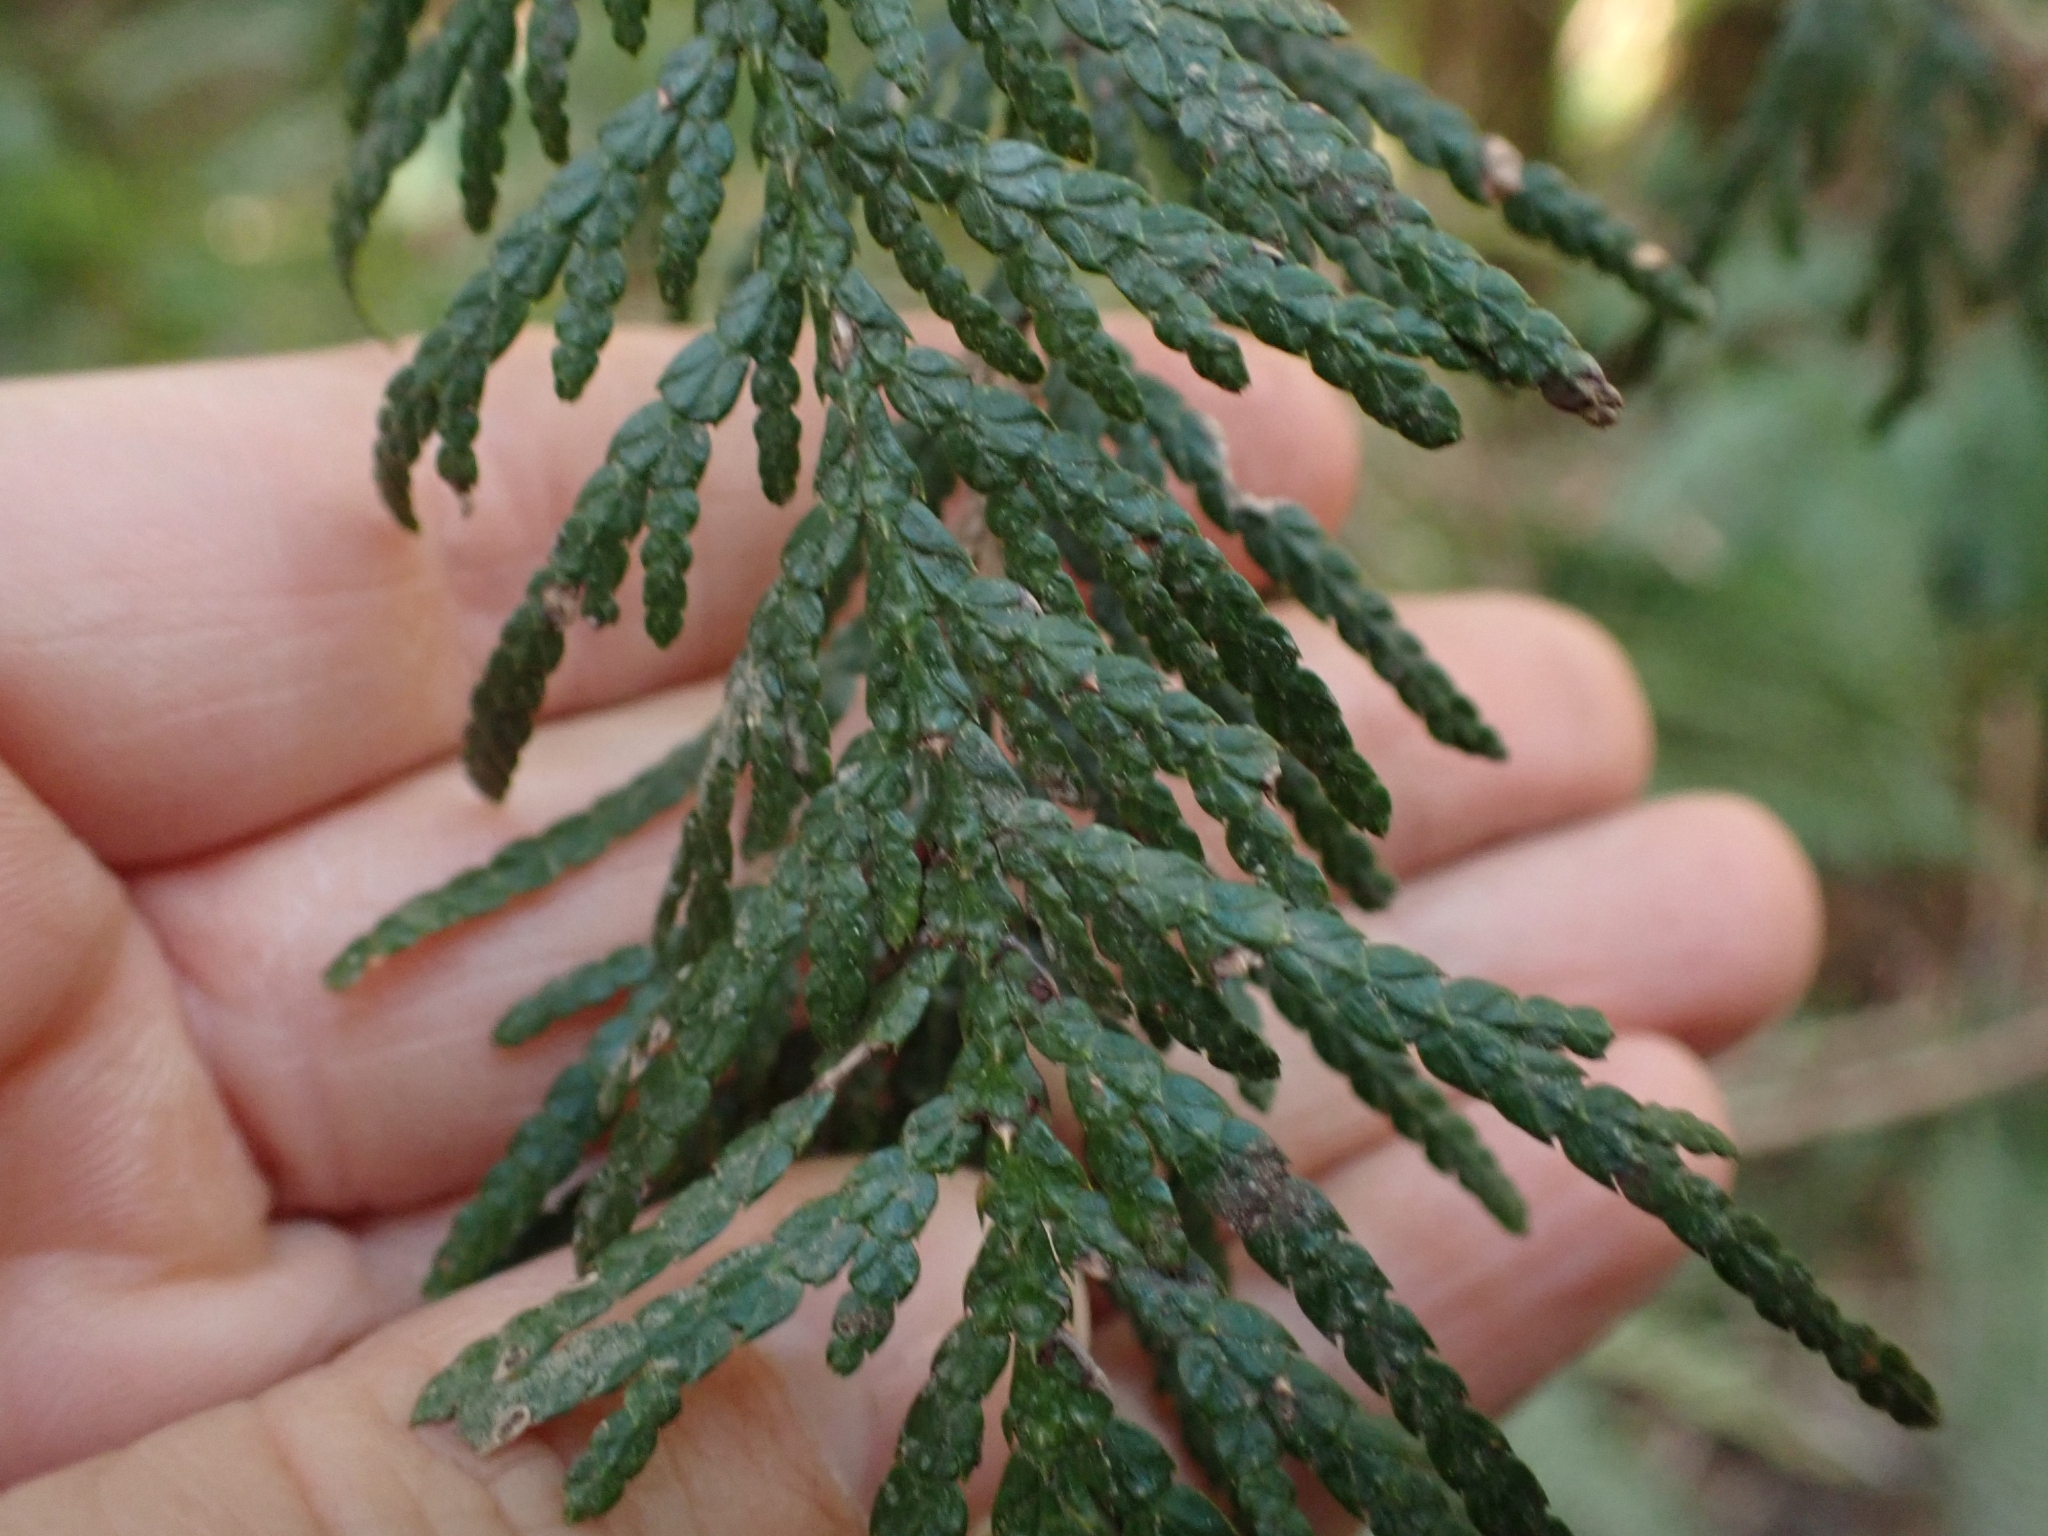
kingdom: Plantae
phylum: Tracheophyta
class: Pinopsida
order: Pinales
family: Cupressaceae
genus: Thuja
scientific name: Thuja plicata
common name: Western red-cedar
